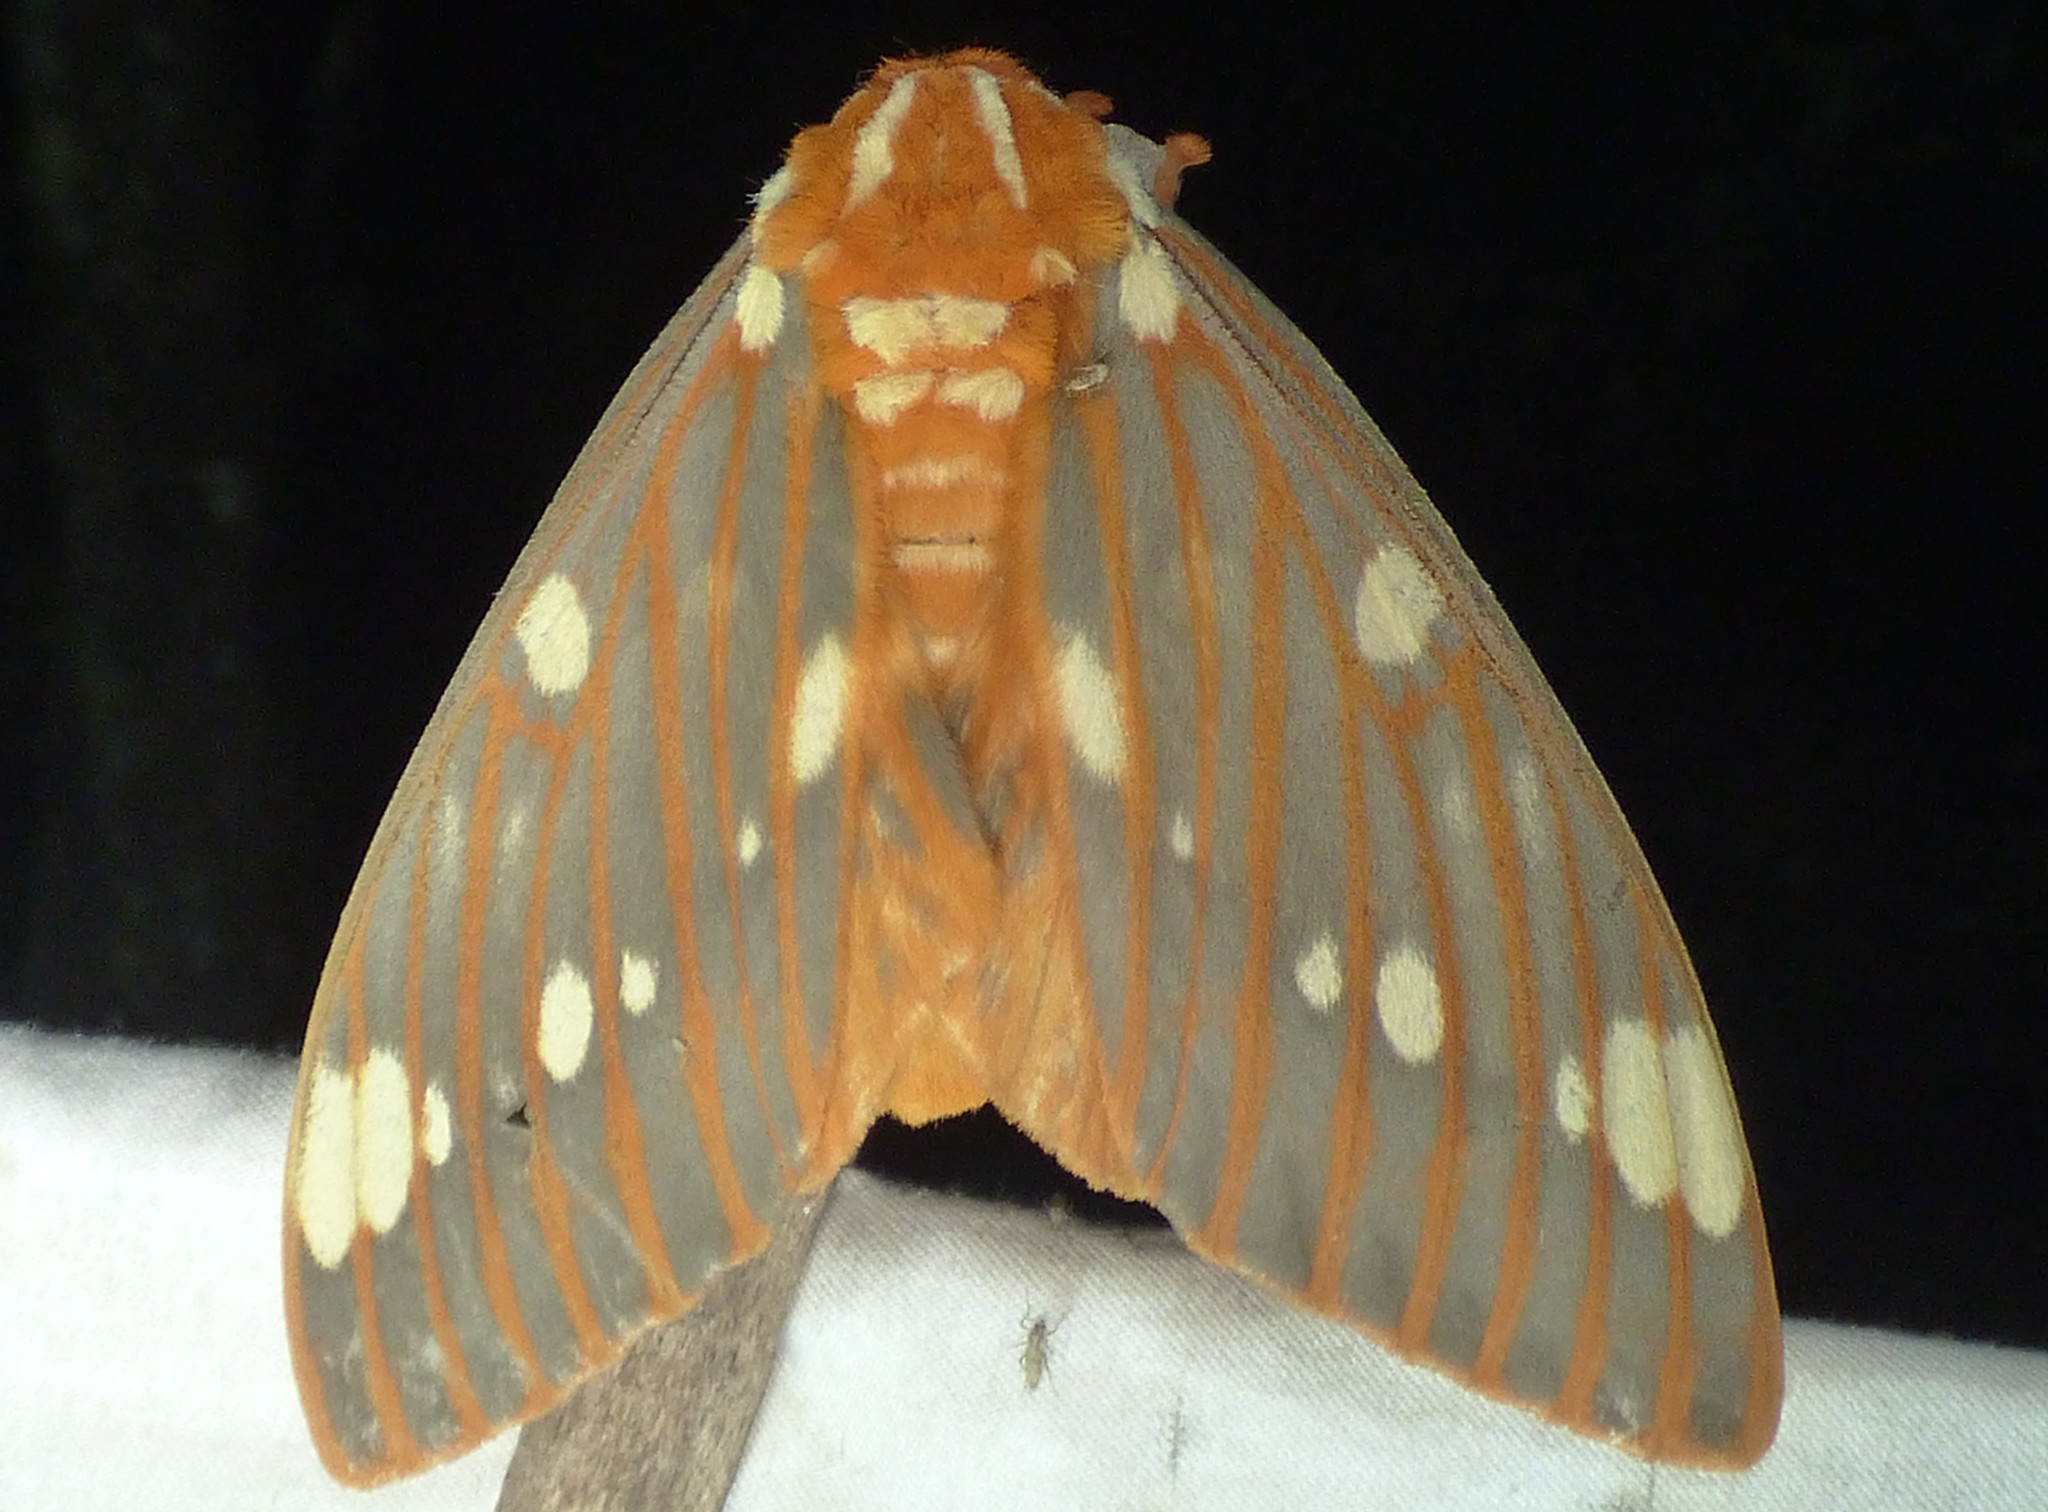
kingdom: Animalia
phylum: Arthropoda
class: Insecta
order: Lepidoptera
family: Saturniidae
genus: Citheronia
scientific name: Citheronia regalis
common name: Hickory horned devil
